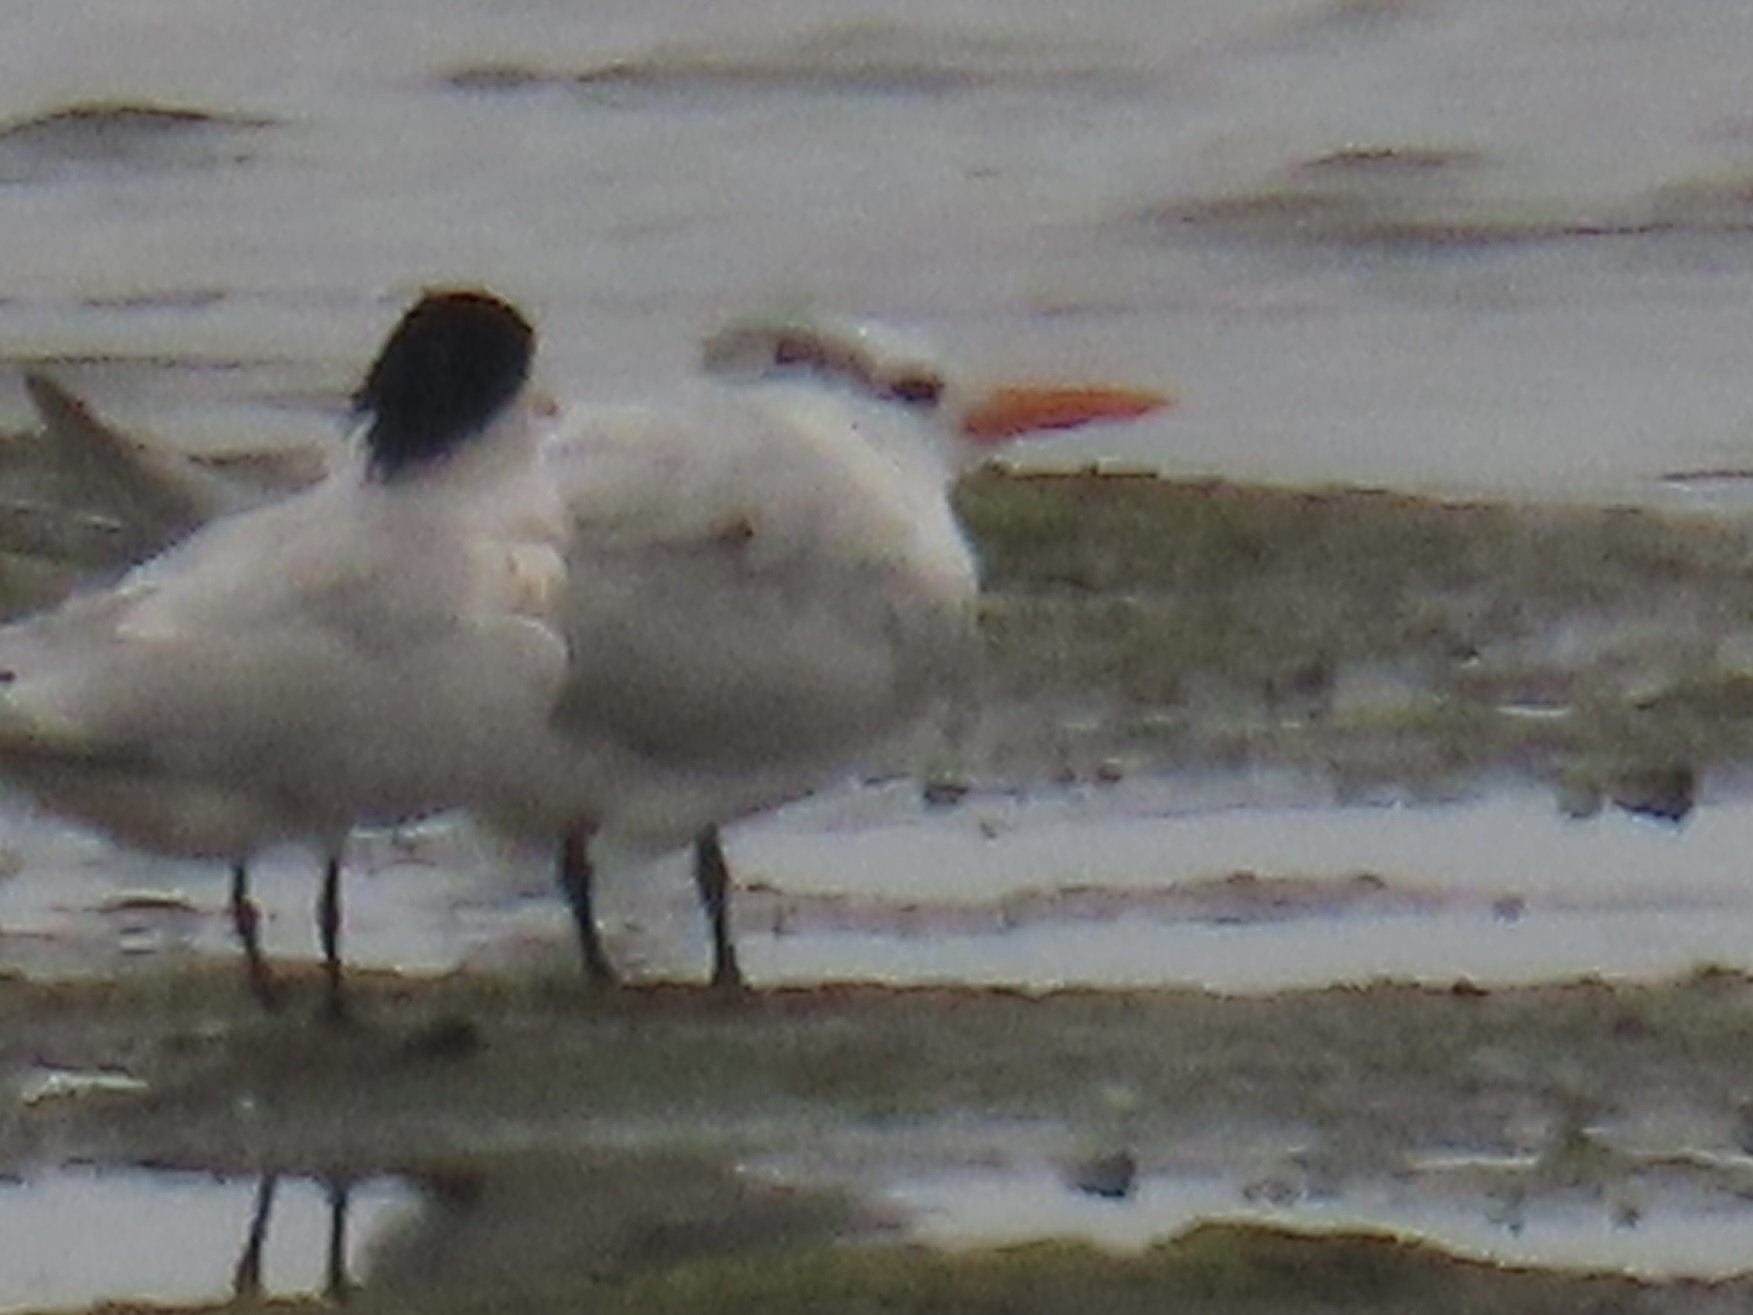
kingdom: Animalia
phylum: Chordata
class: Aves
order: Charadriiformes
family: Laridae
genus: Thalasseus
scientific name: Thalasseus maximus
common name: Royal tern
